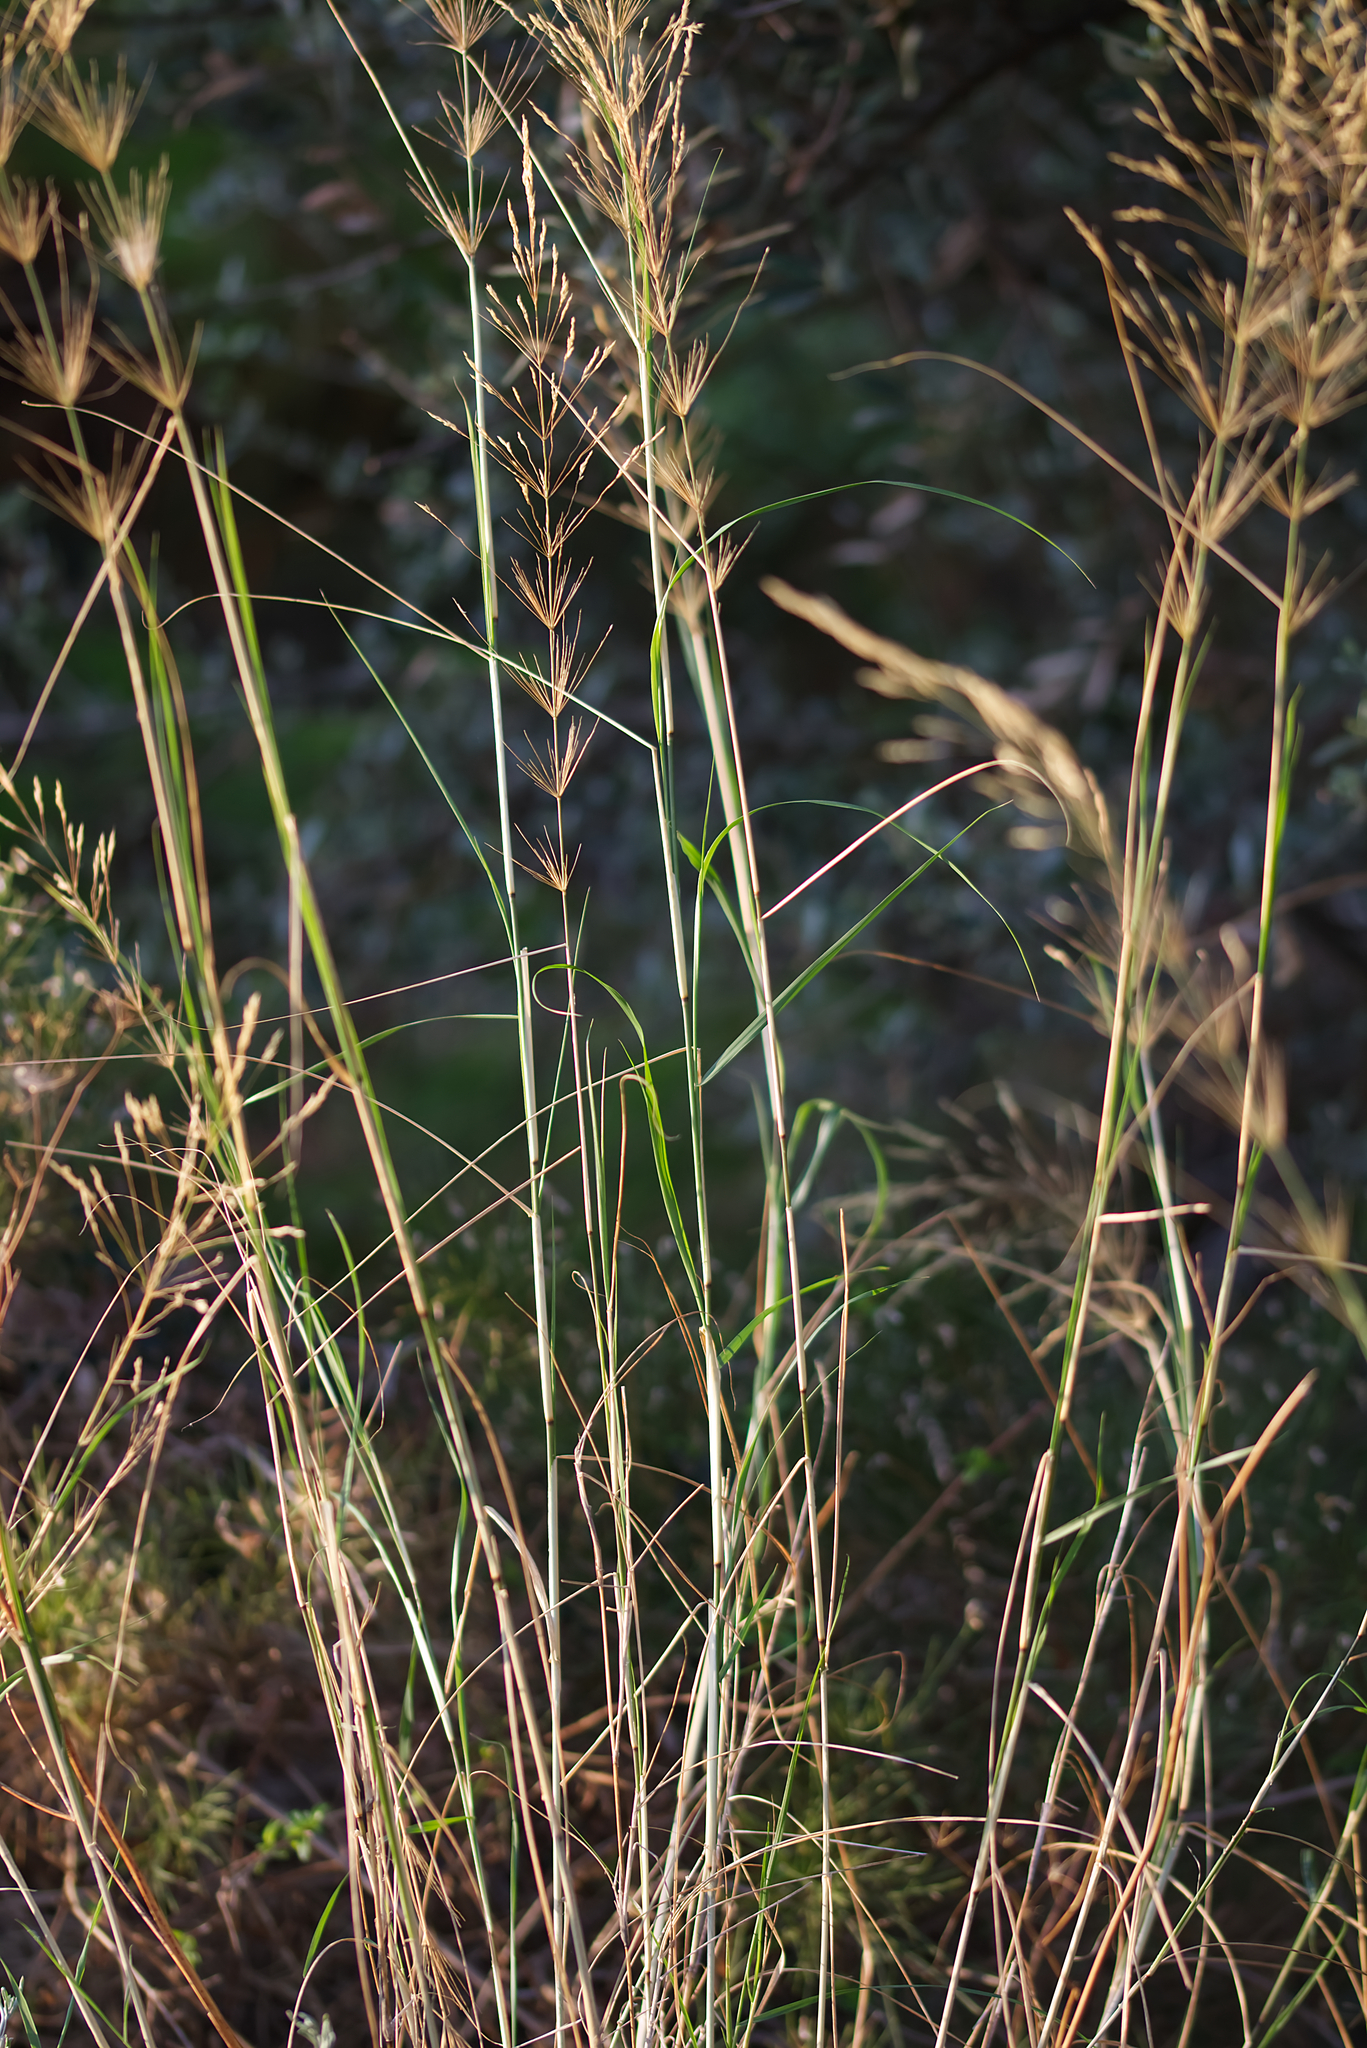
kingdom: Plantae
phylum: Tracheophyta
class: Liliopsida
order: Poales
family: Poaceae
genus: Oloptum
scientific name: Oloptum thomasii
